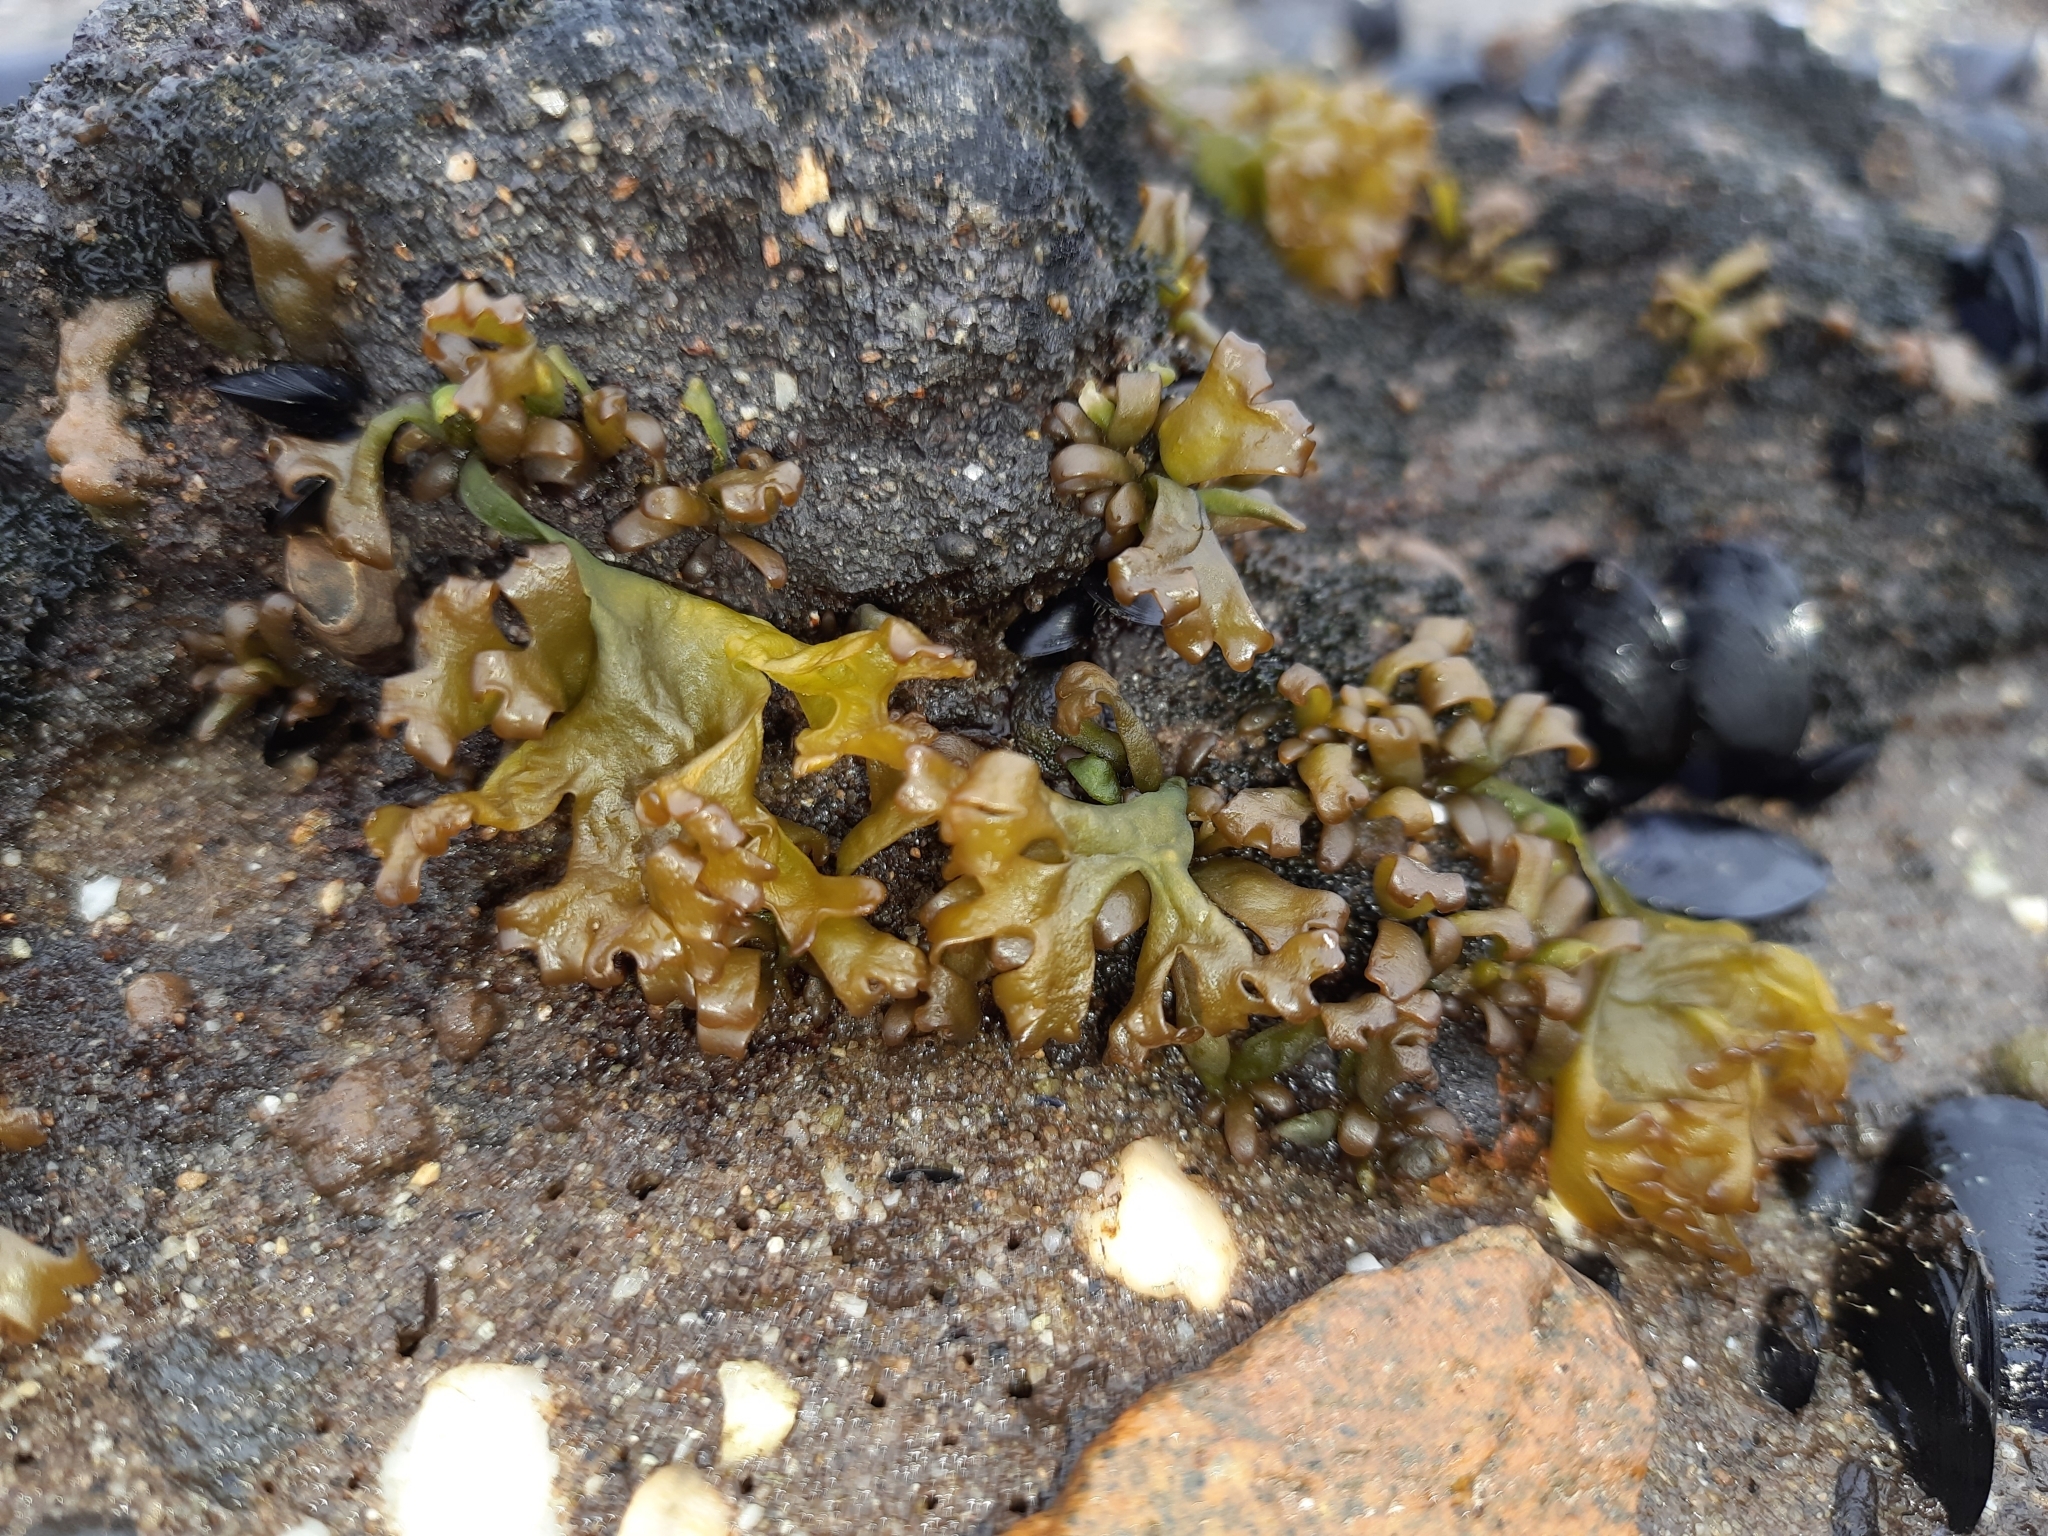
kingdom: Plantae
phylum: Rhodophyta
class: Florideophyceae
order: Gigartinales
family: Gigartinaceae
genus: Iridaea
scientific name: Iridaea tuberculosa
